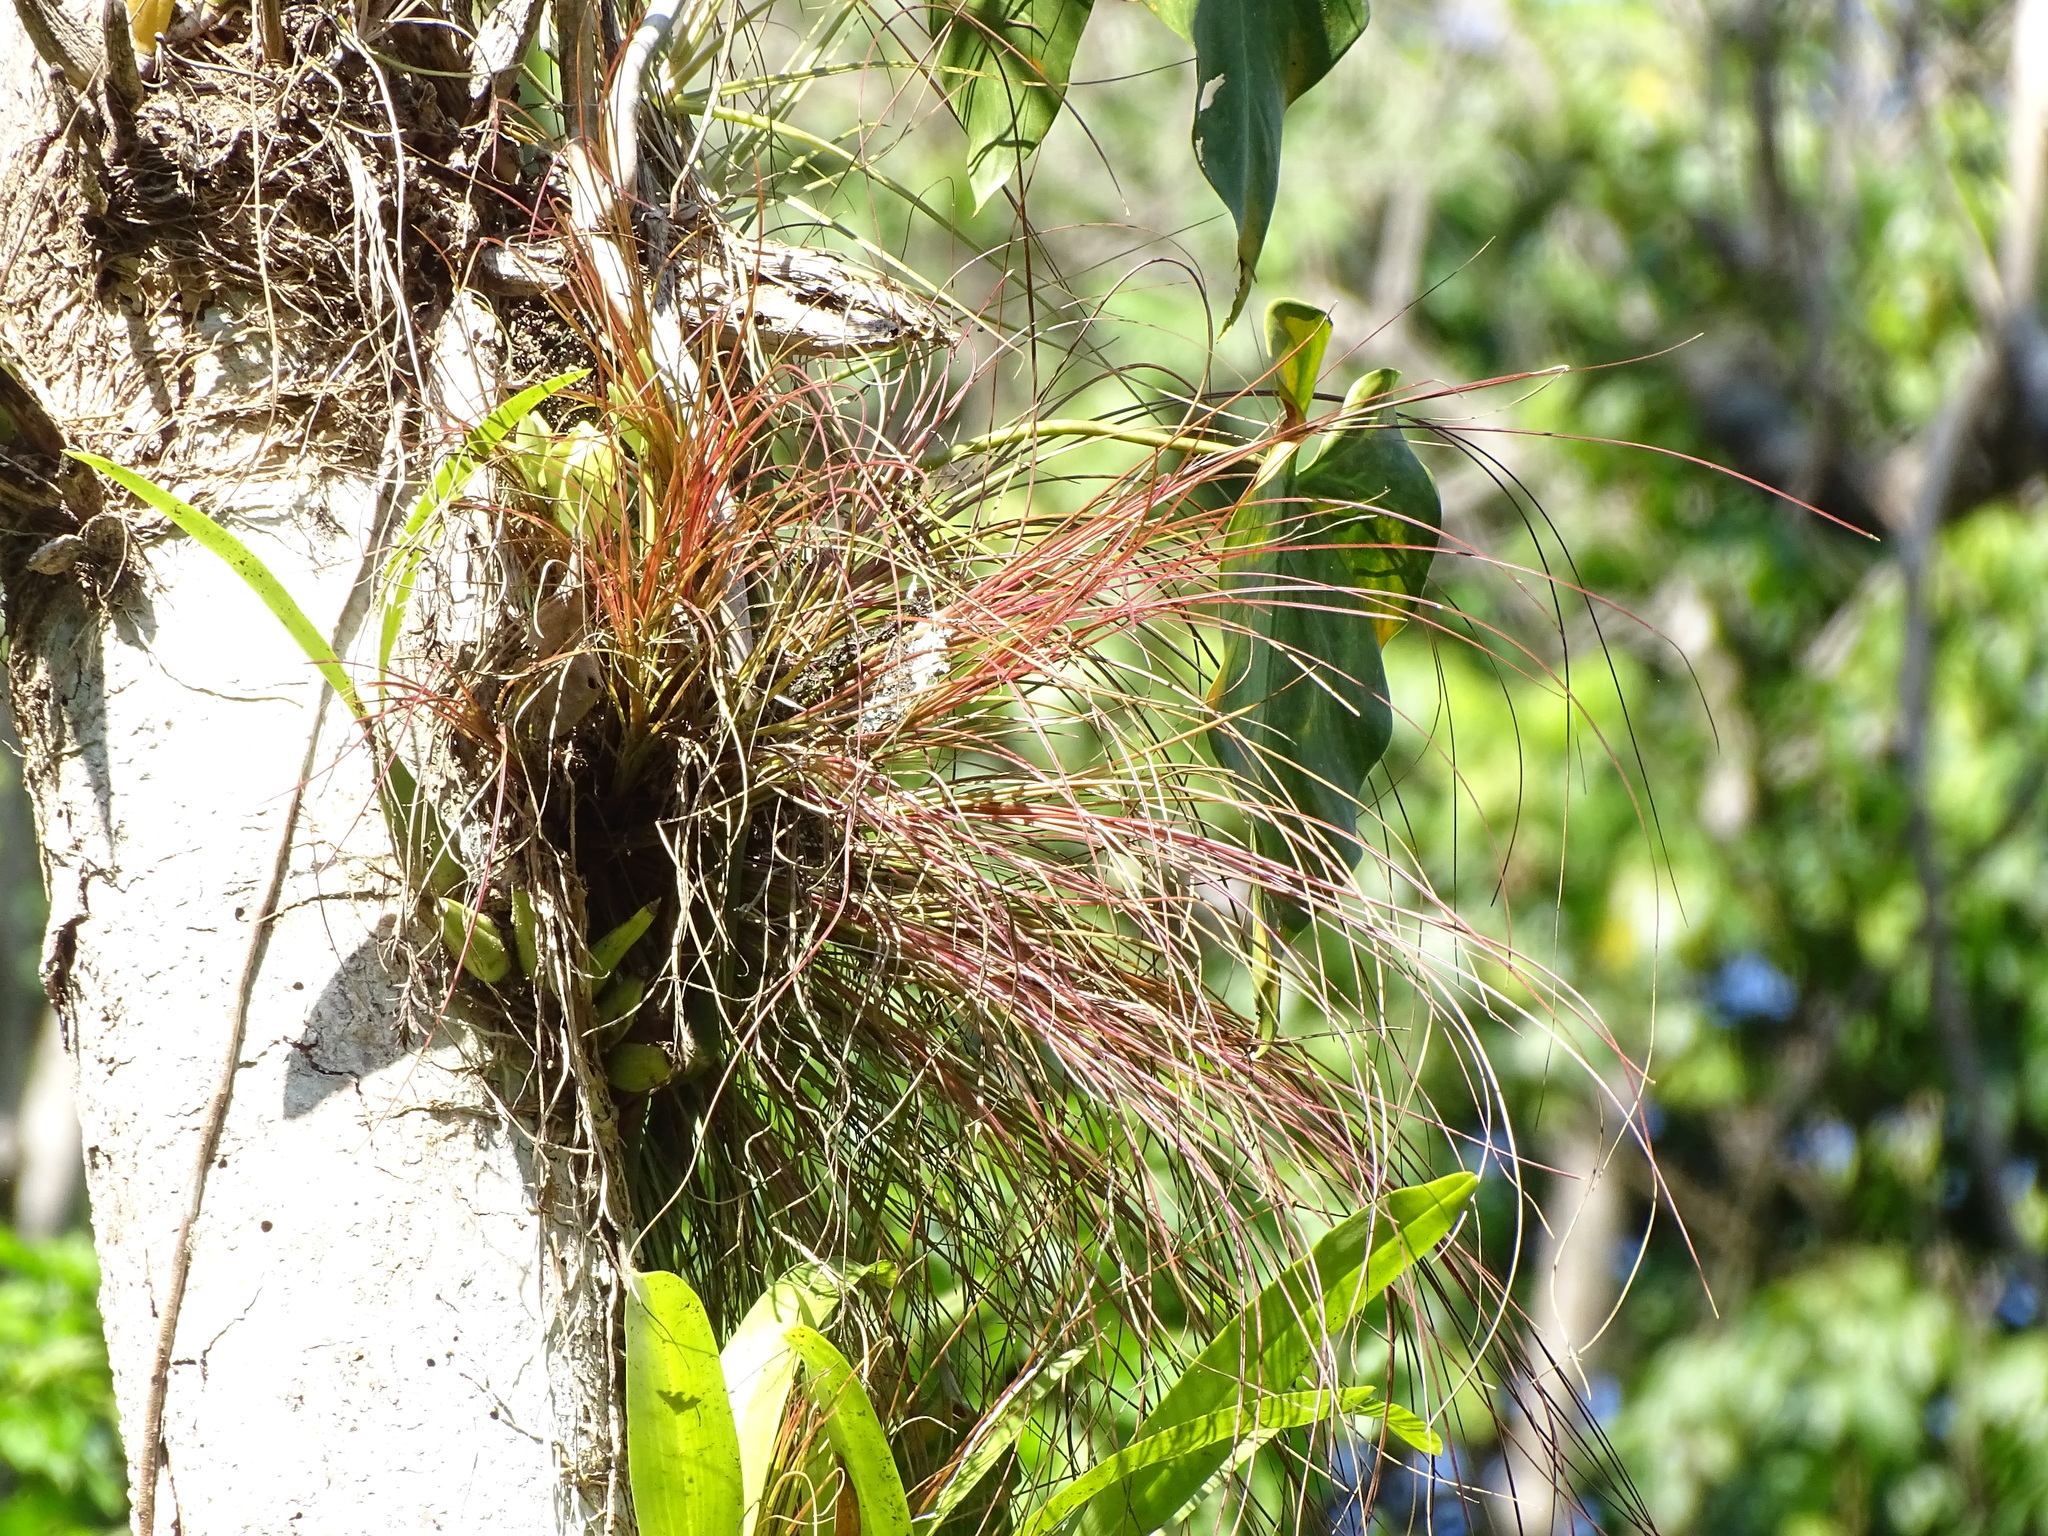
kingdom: Plantae
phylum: Tracheophyta
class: Liliopsida
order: Poales
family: Bromeliaceae
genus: Tillandsia
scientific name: Tillandsia eistetteri
